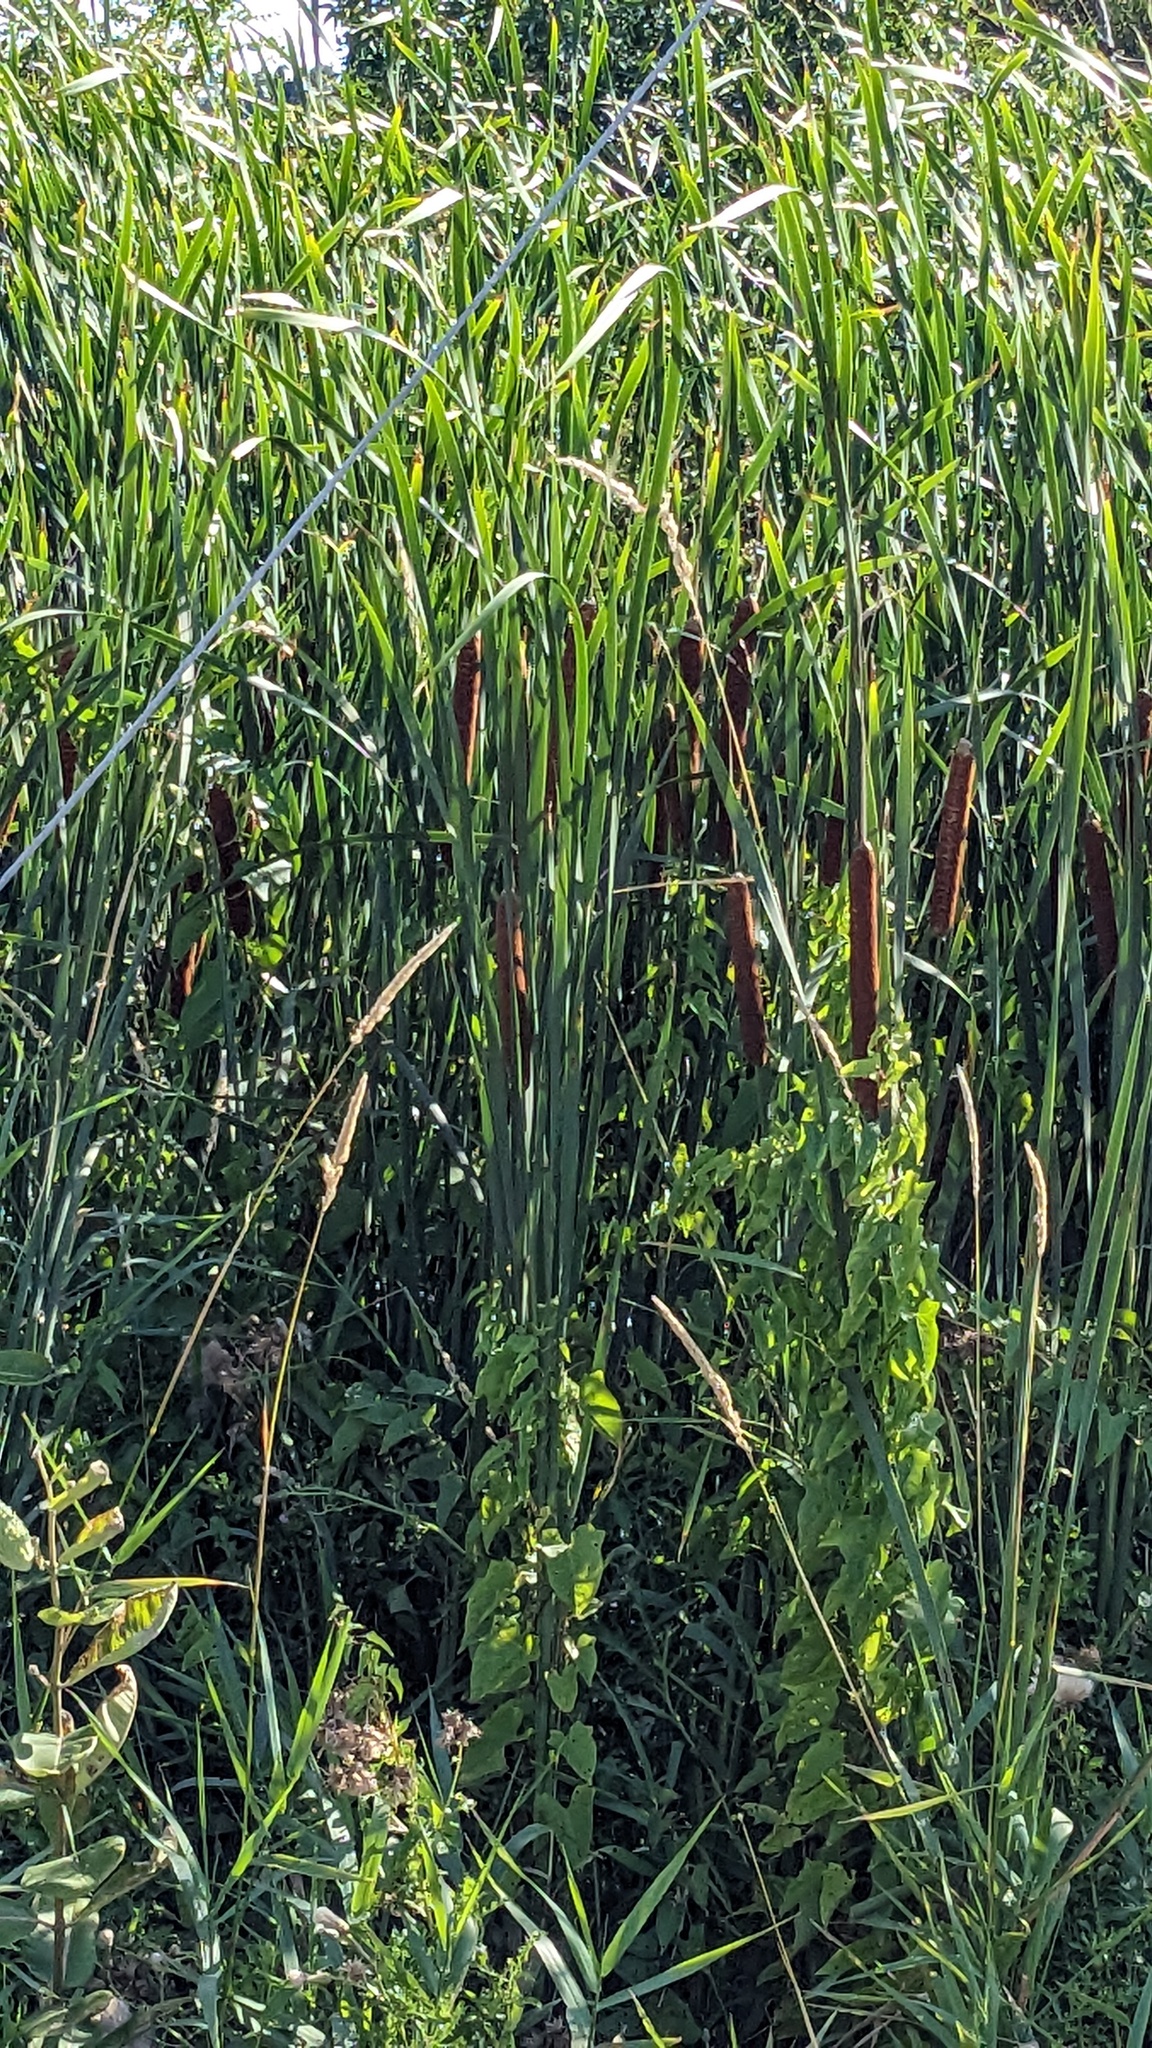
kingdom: Plantae
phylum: Tracheophyta
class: Liliopsida
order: Poales
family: Typhaceae
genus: Typha
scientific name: Typha latifolia
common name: Broadleaf cattail
